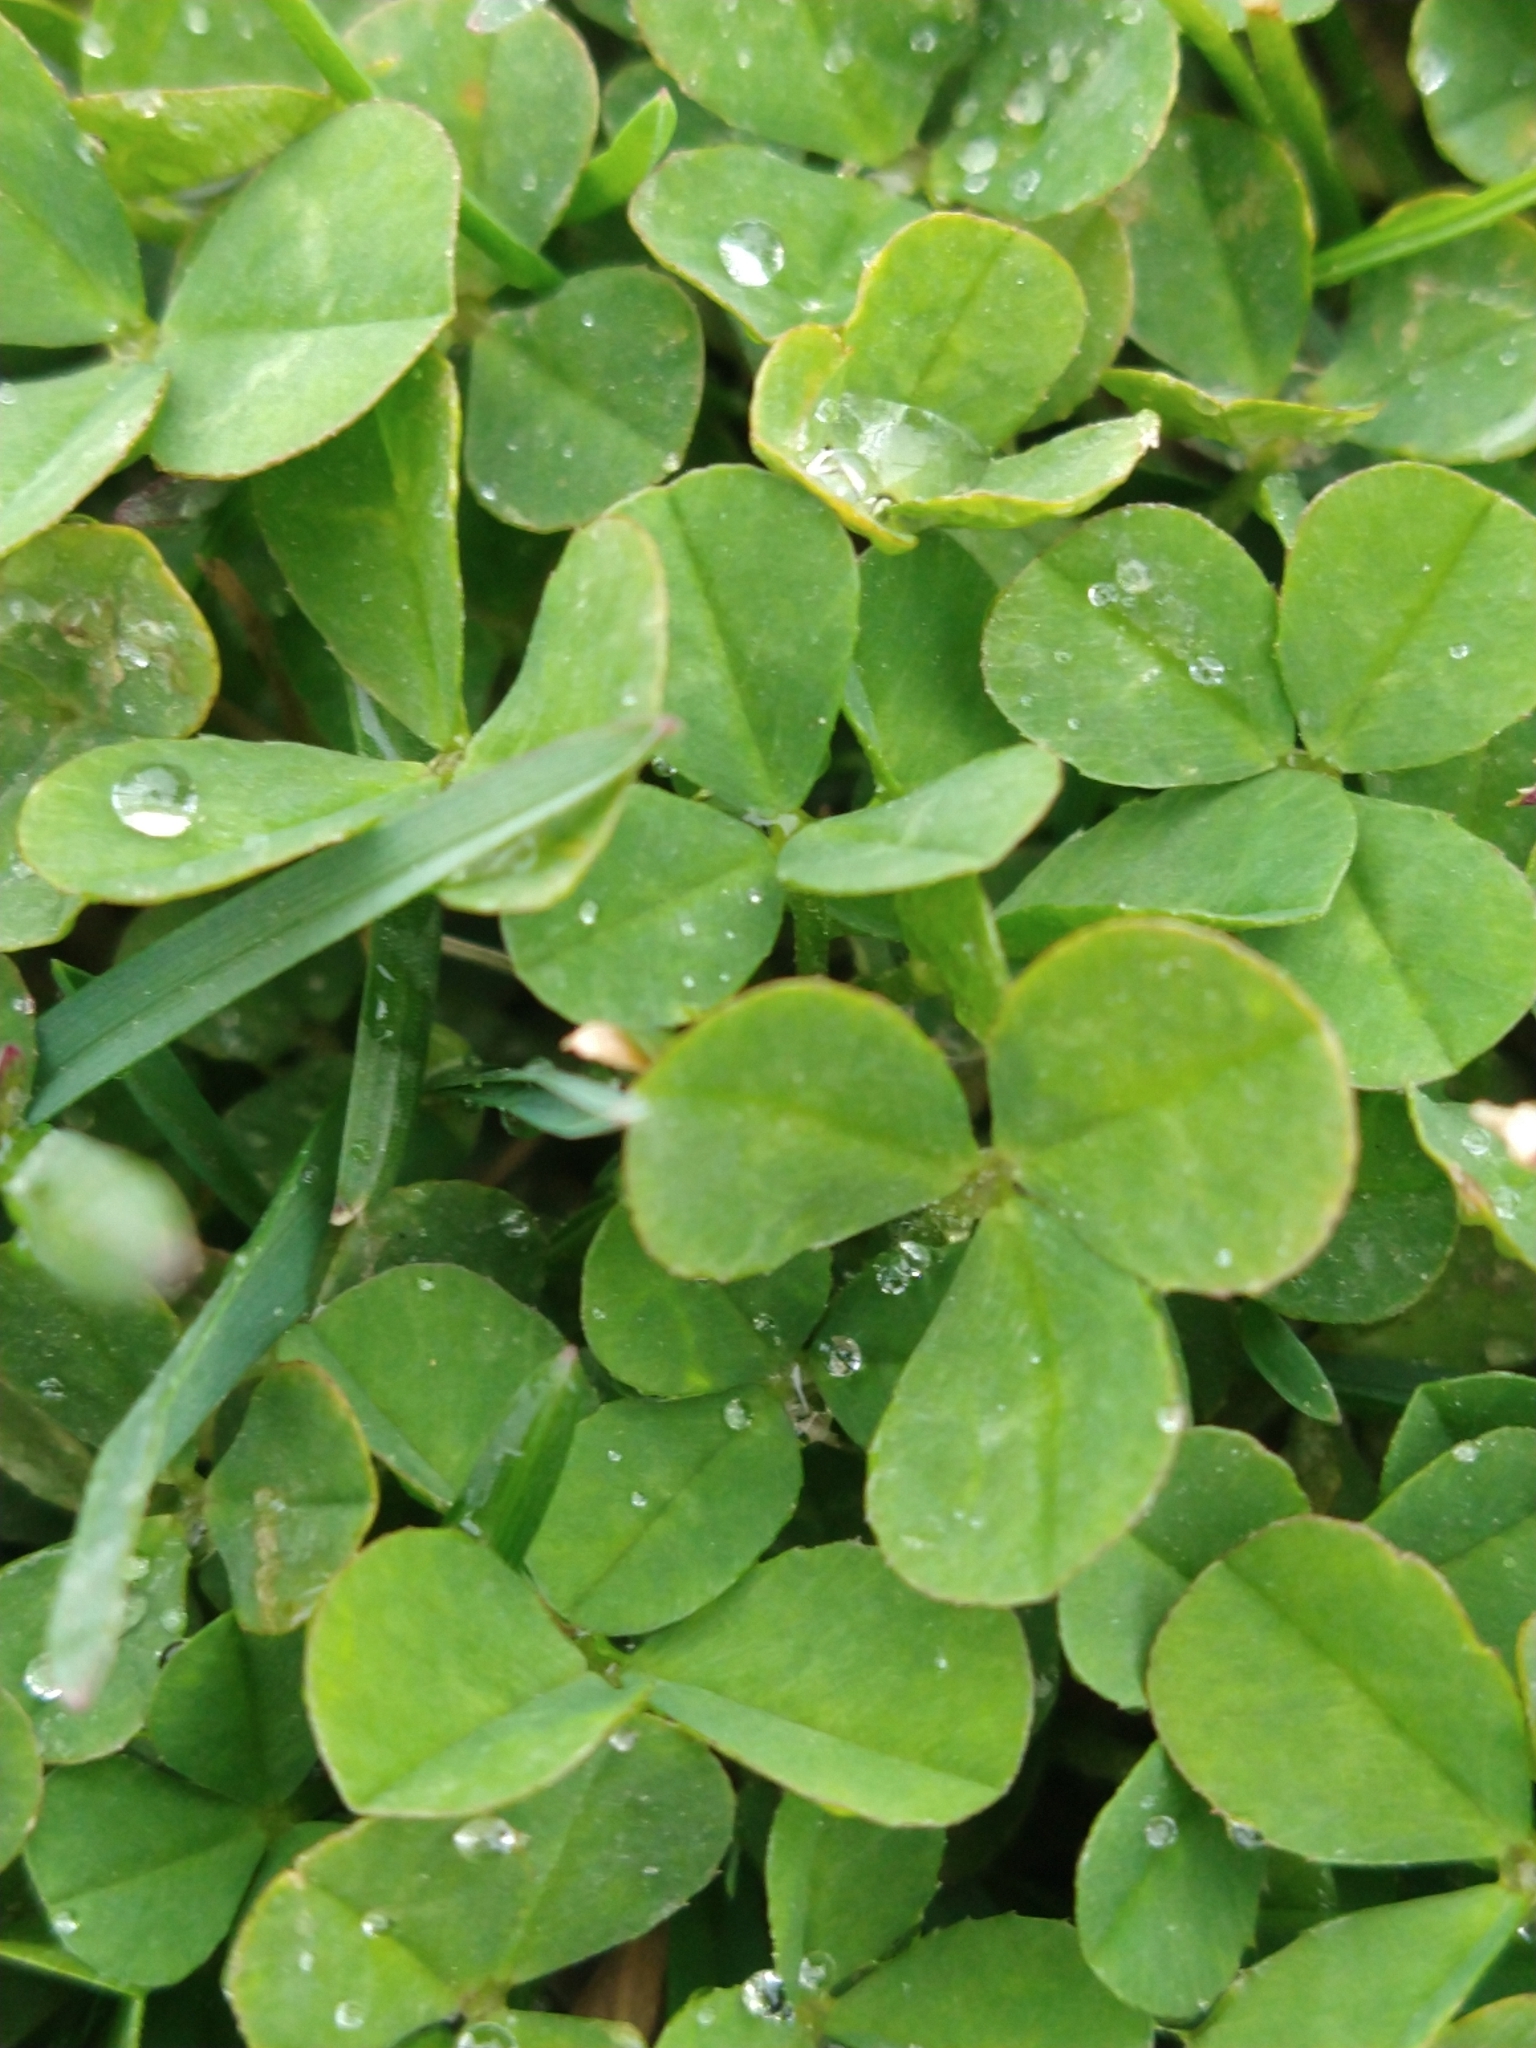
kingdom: Plantae
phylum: Tracheophyta
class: Magnoliopsida
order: Fabales
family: Fabaceae
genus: Trifolium
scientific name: Trifolium repens
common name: White clover
